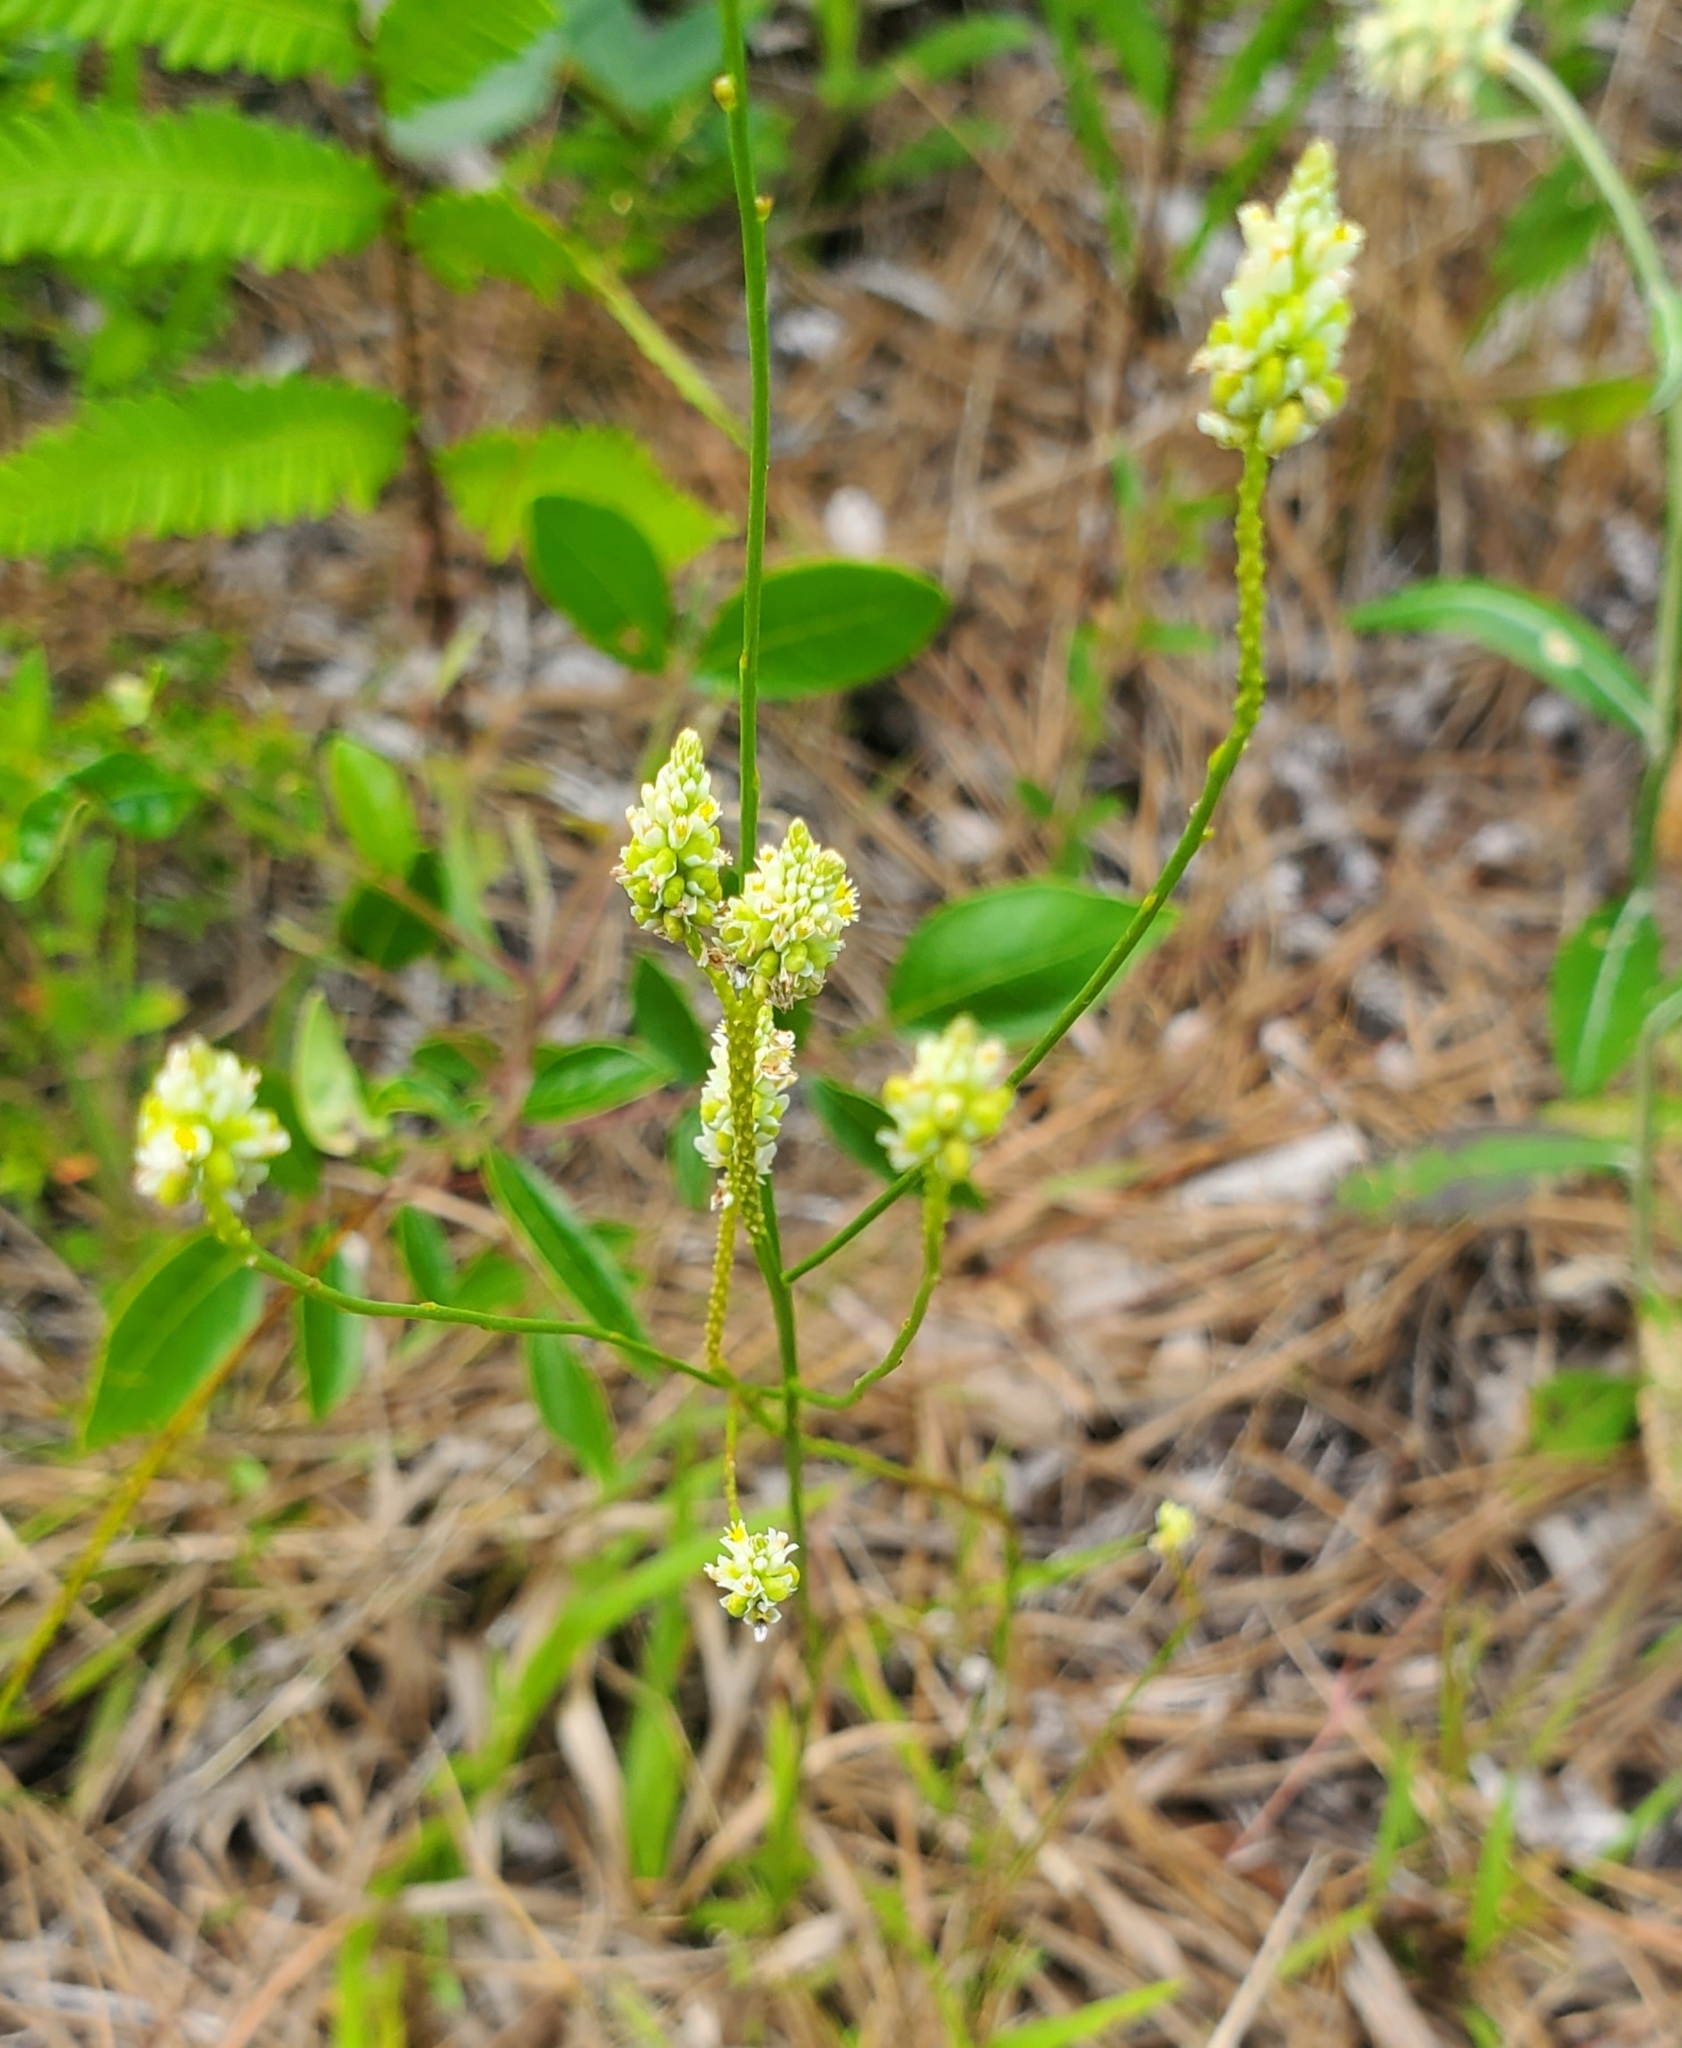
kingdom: Plantae
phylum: Tracheophyta
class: Magnoliopsida
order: Fabales
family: Polygalaceae
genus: Polygala
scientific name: Polygala setacea
